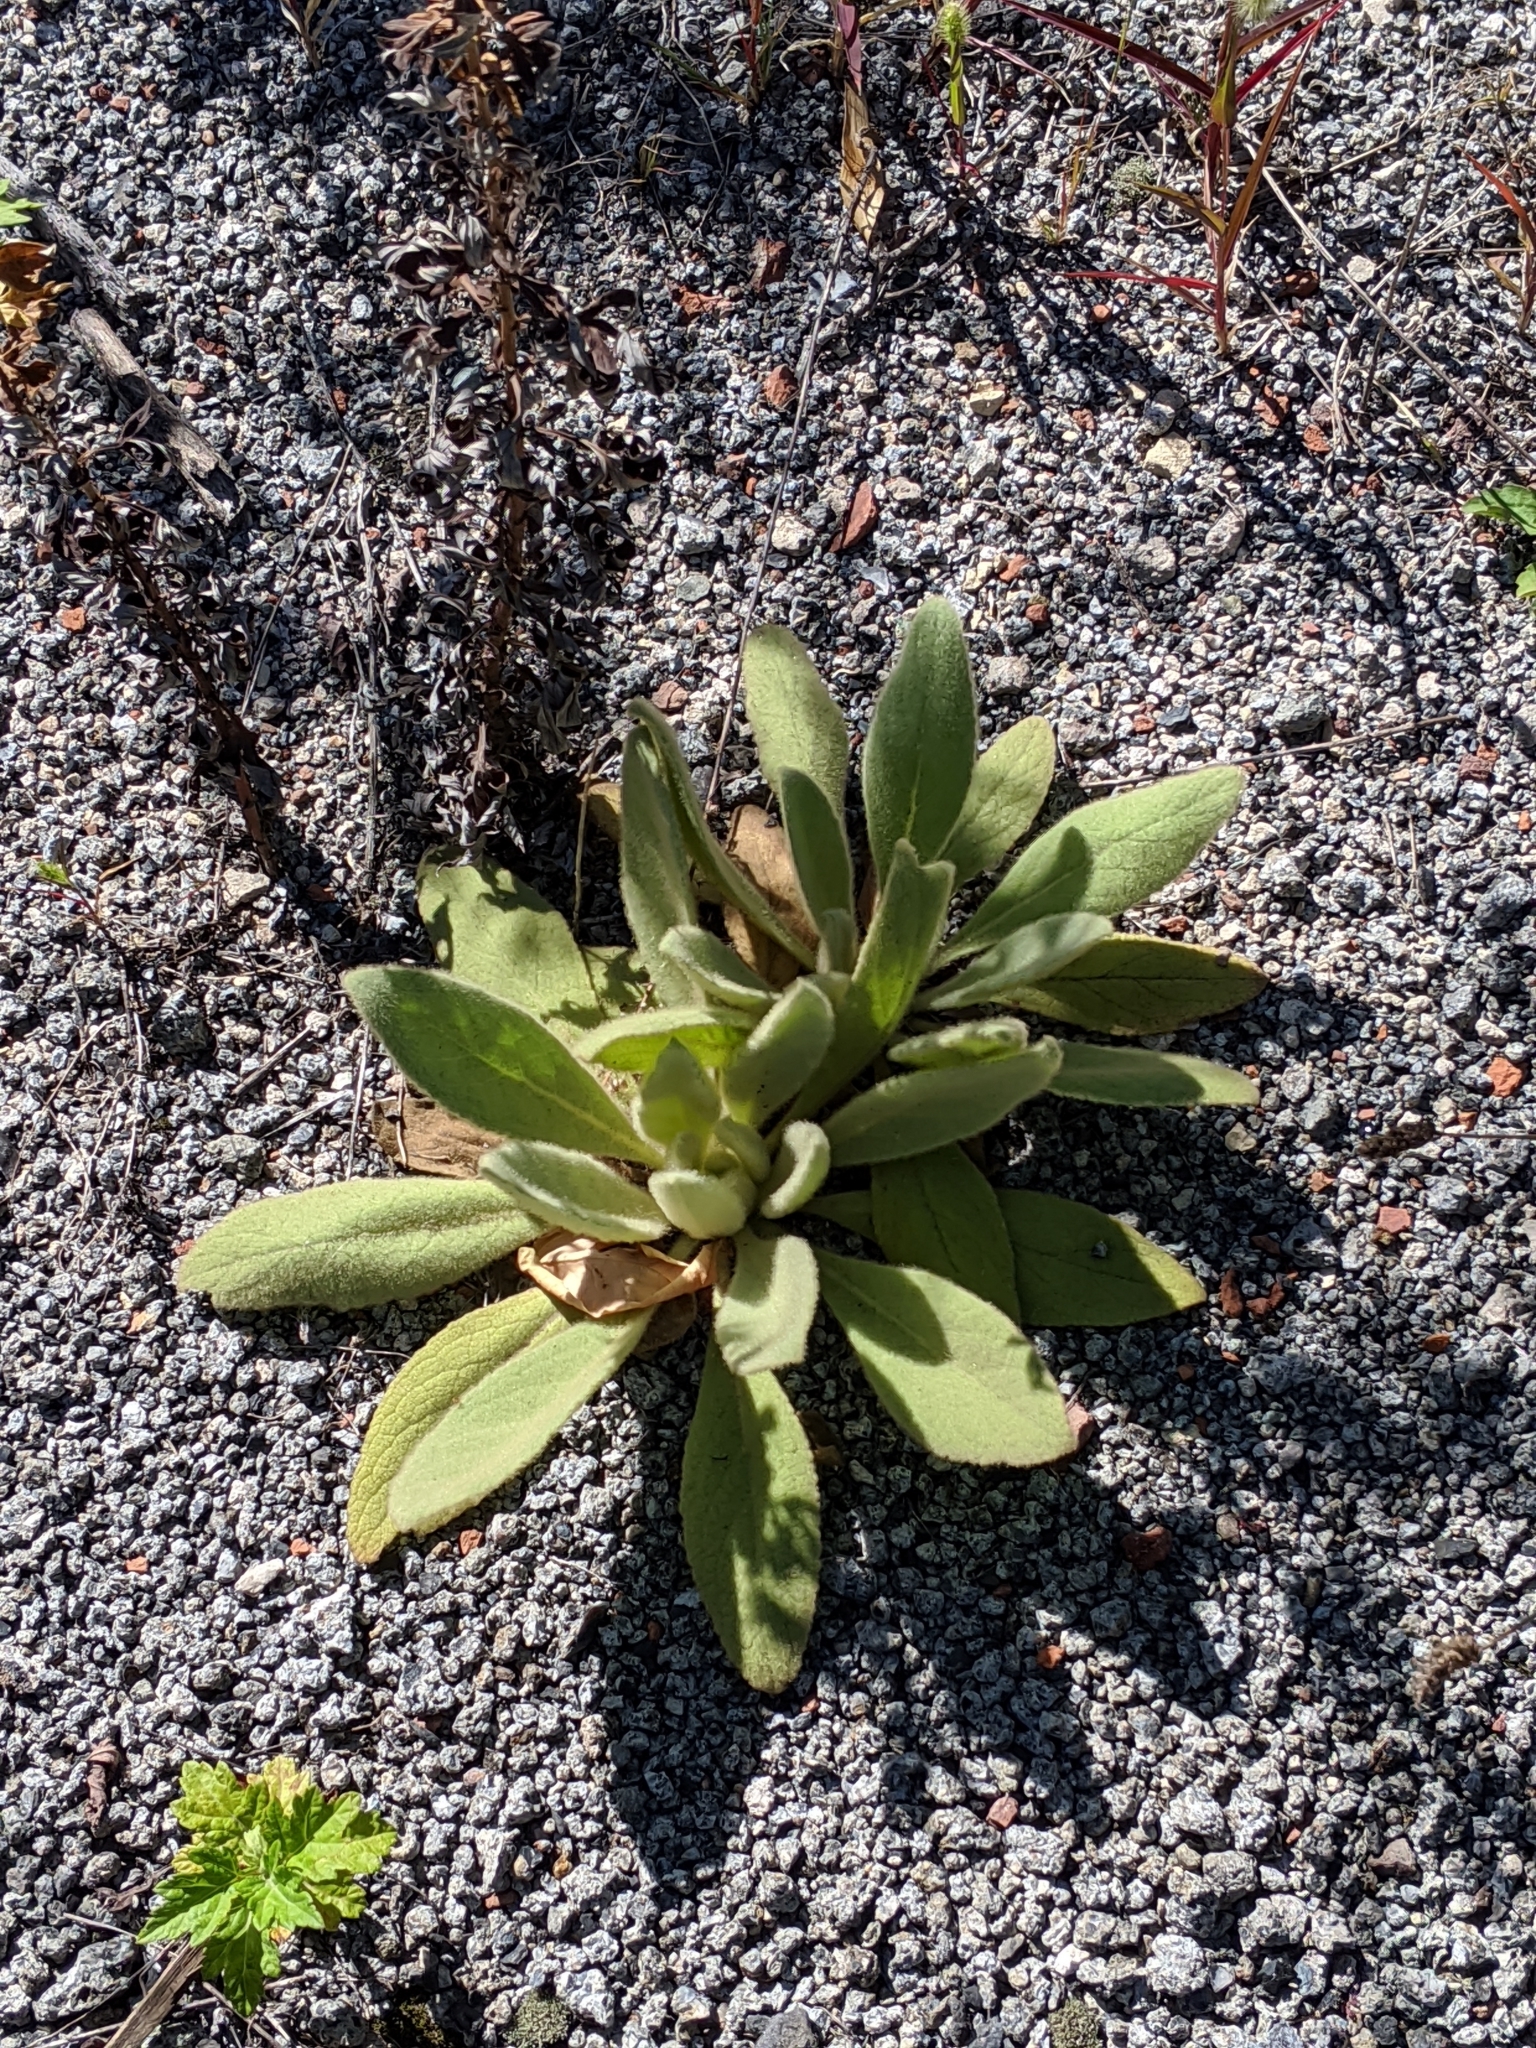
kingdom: Plantae
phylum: Tracheophyta
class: Magnoliopsida
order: Lamiales
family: Scrophulariaceae
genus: Verbascum
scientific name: Verbascum thapsus
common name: Common mullein
